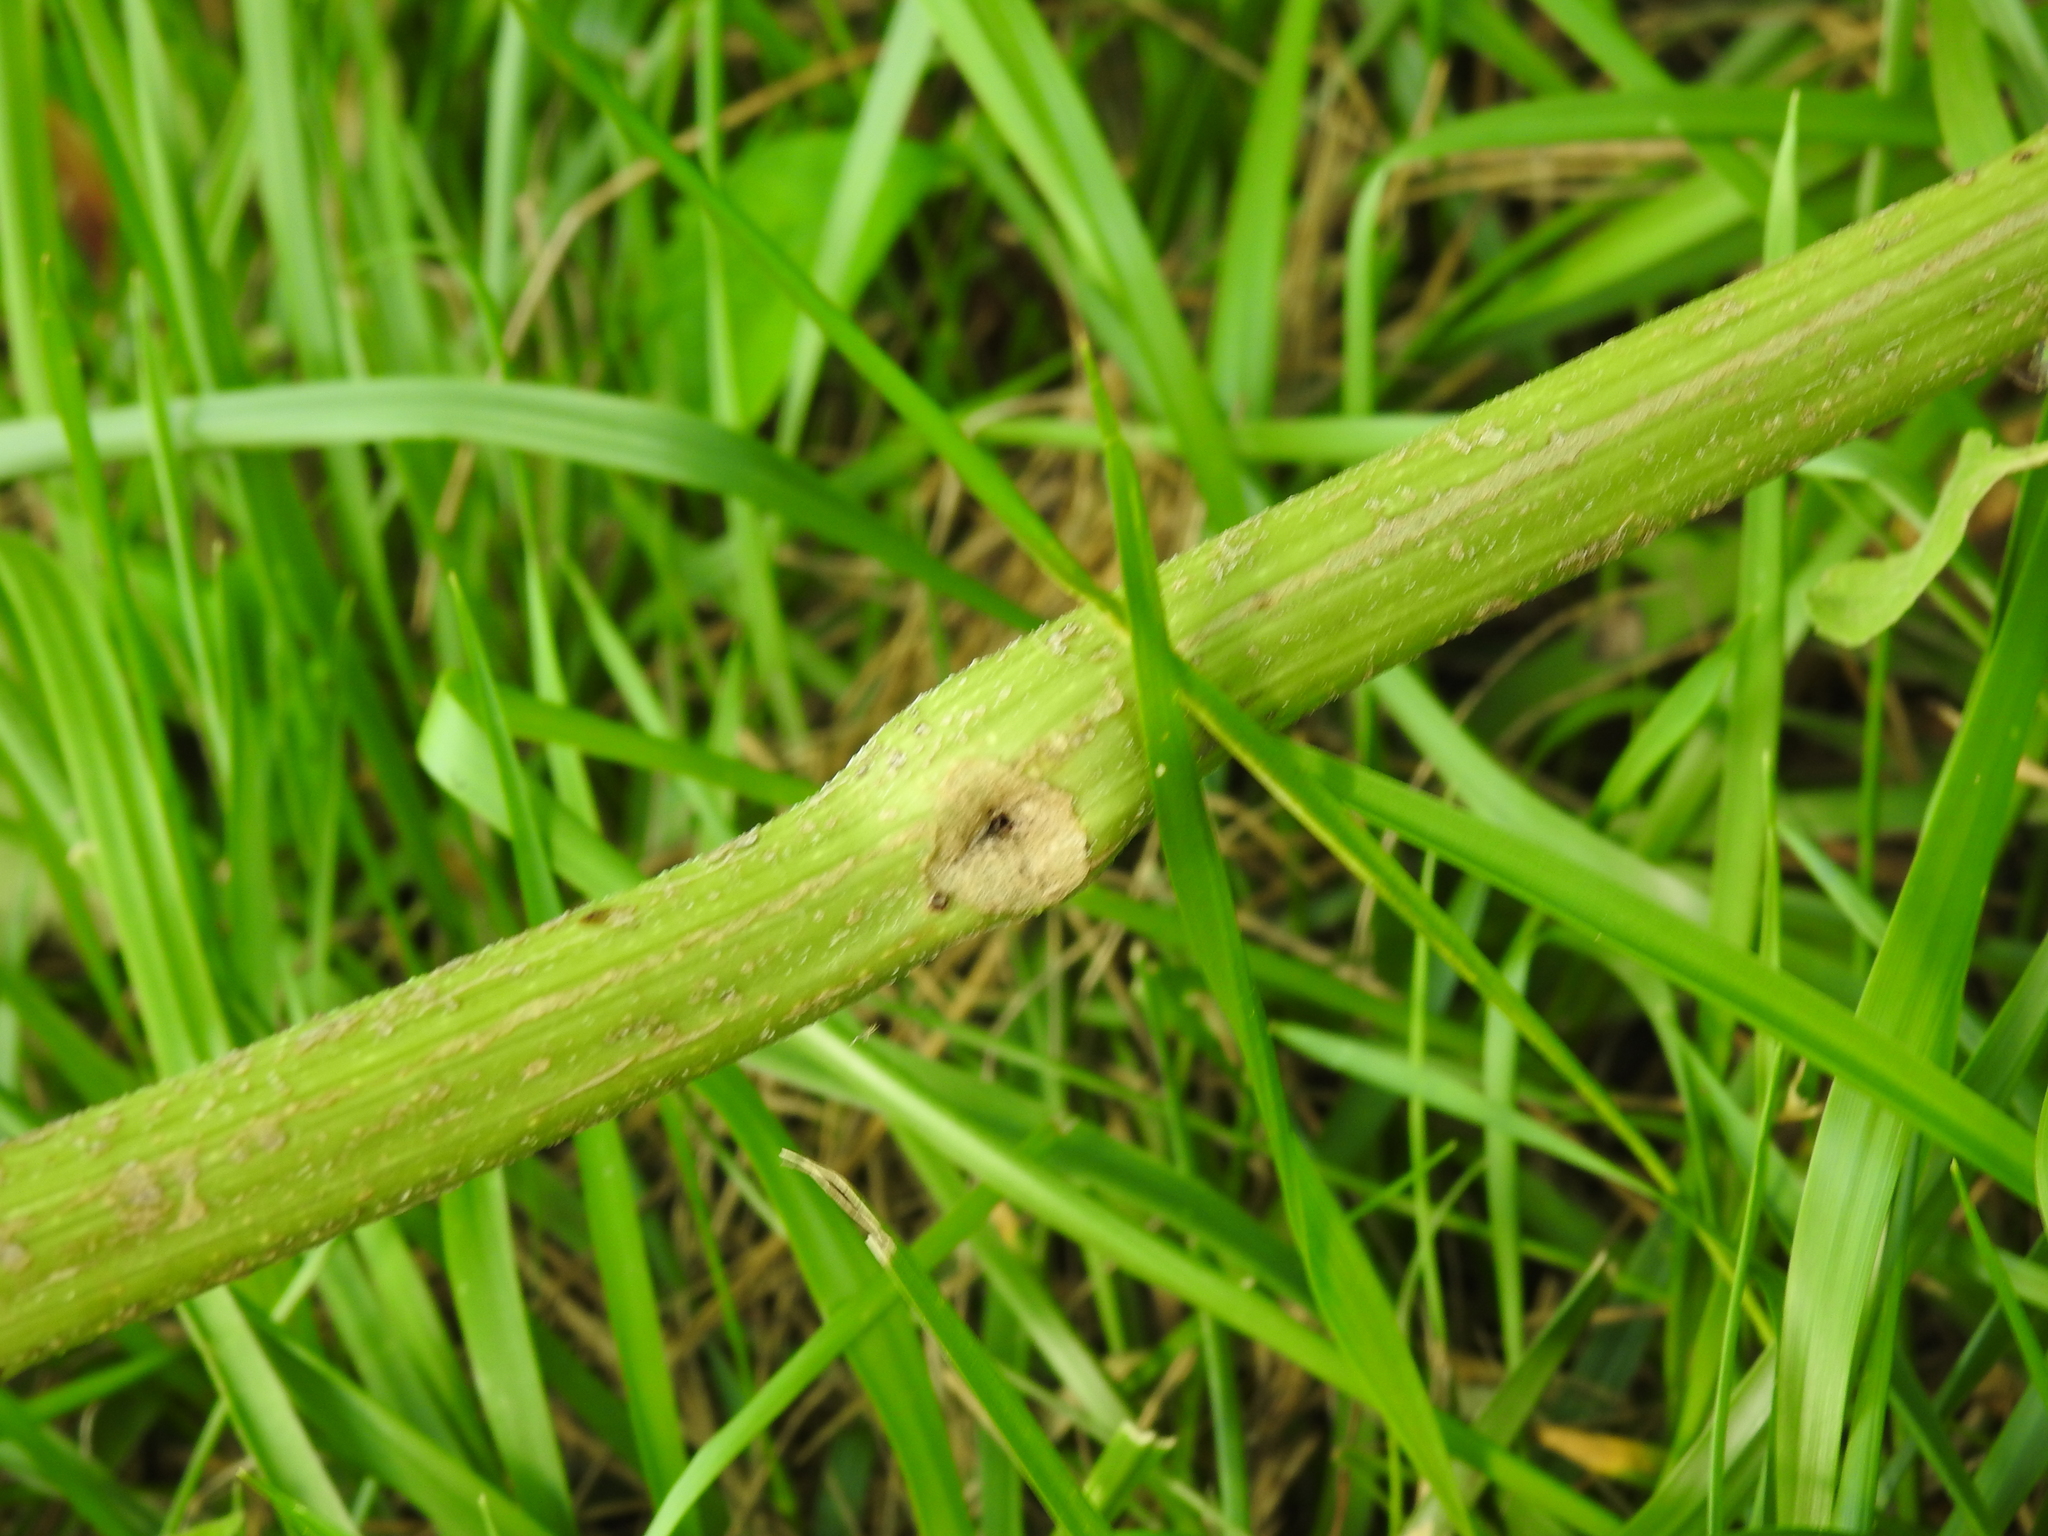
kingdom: Animalia
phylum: Arthropoda
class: Insecta
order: Lepidoptera
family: Tortricidae
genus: Epiblema
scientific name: Epiblema strenuana
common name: Ragweed borer moth
